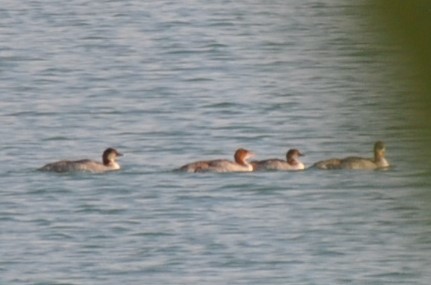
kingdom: Animalia
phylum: Chordata
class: Aves
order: Anseriformes
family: Anatidae
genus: Mergus
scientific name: Mergus merganser
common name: Common merganser
